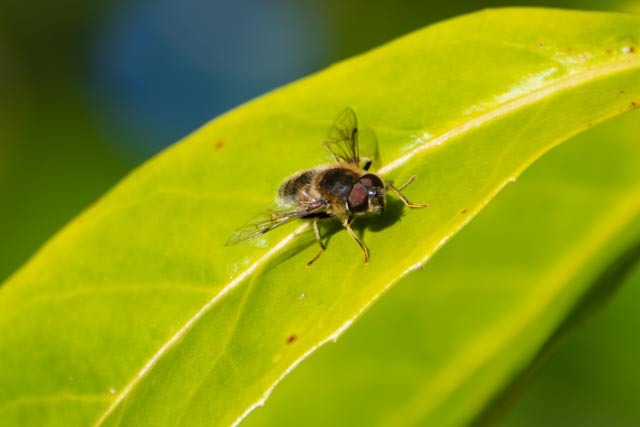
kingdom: Animalia
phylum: Arthropoda
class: Insecta
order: Diptera
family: Syrphidae
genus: Eristalis
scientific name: Eristalis pertinax
